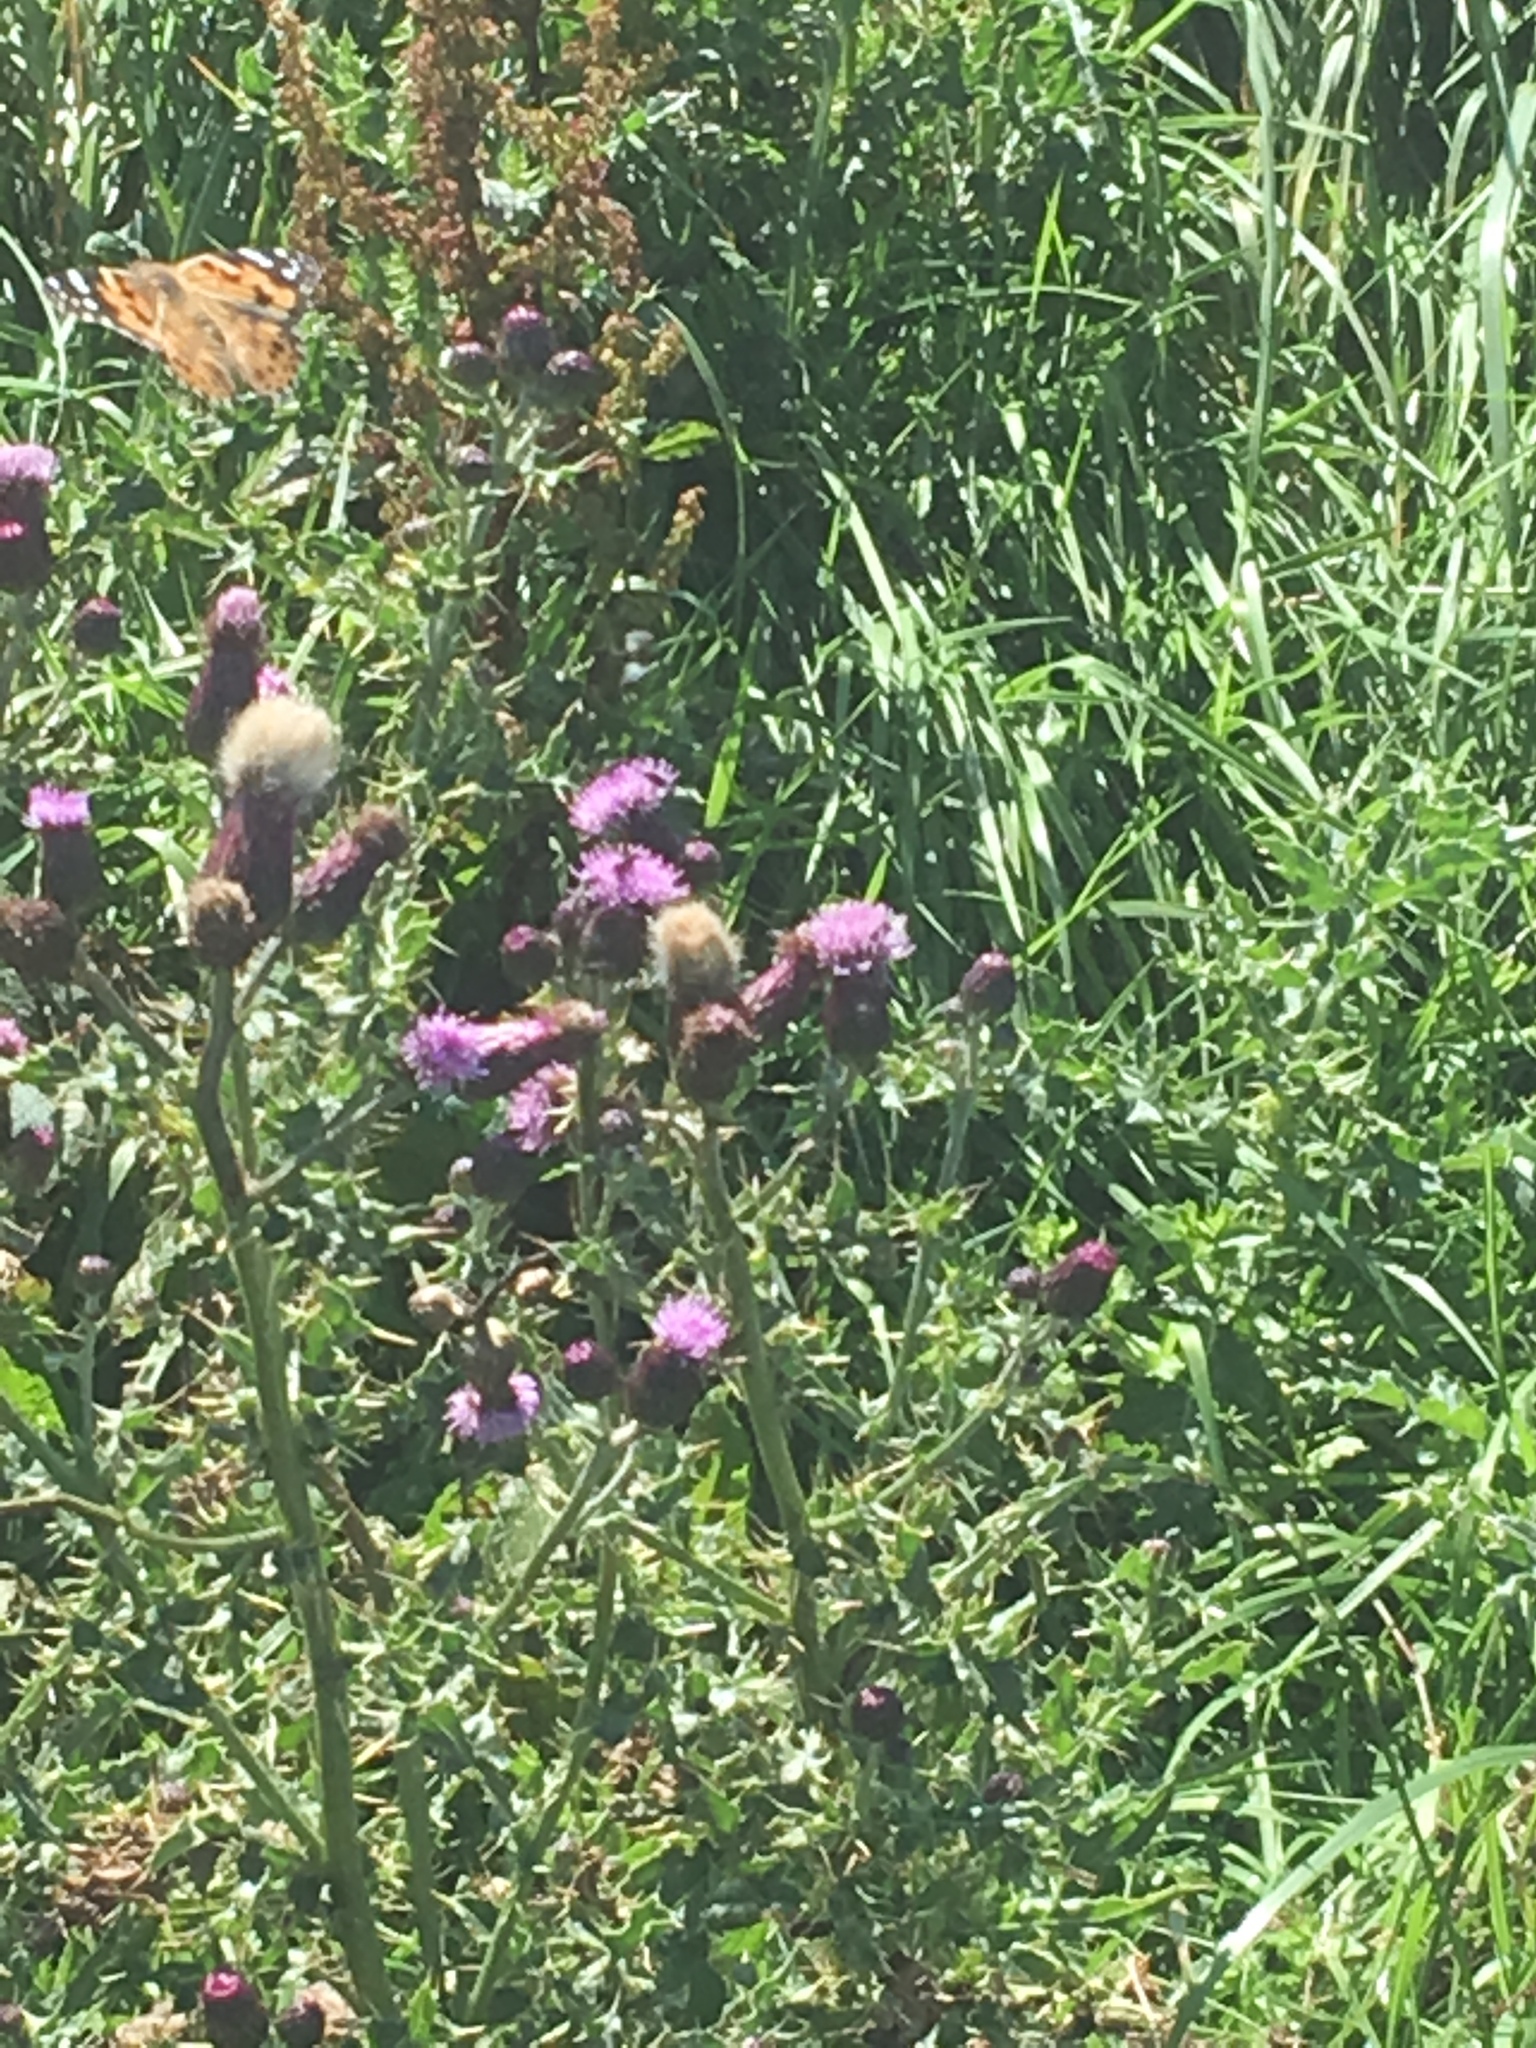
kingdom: Animalia
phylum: Arthropoda
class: Insecta
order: Lepidoptera
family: Nymphalidae
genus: Vanessa
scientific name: Vanessa cardui
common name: Painted lady
